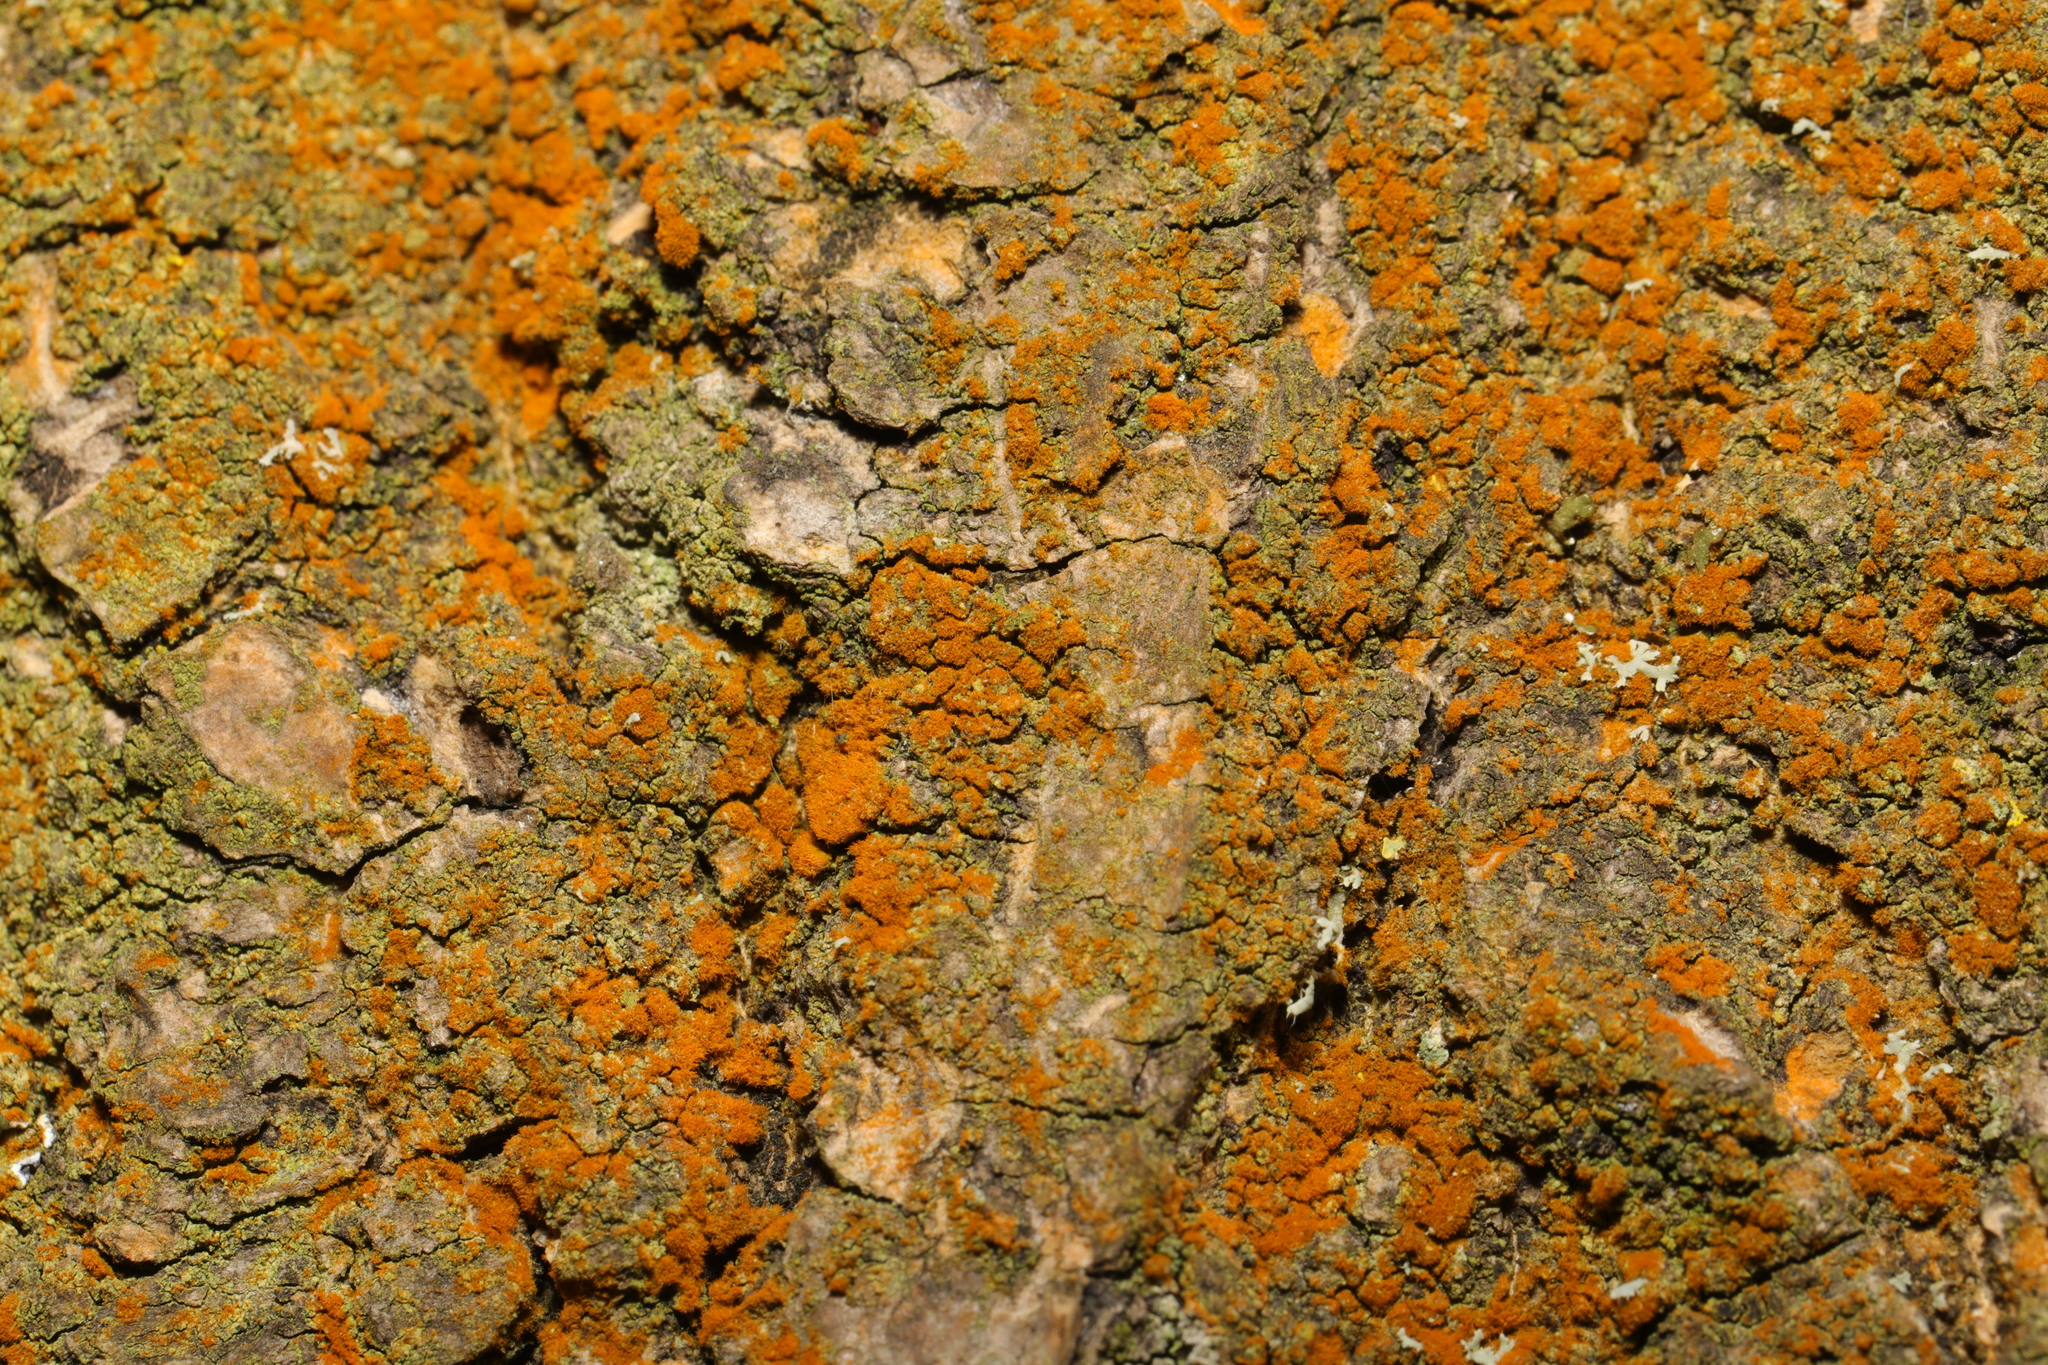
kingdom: Plantae
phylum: Chlorophyta
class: Ulvophyceae
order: Trentepohliales
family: Trentepohliaceae
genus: Trentepohlia
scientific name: Trentepohlia
